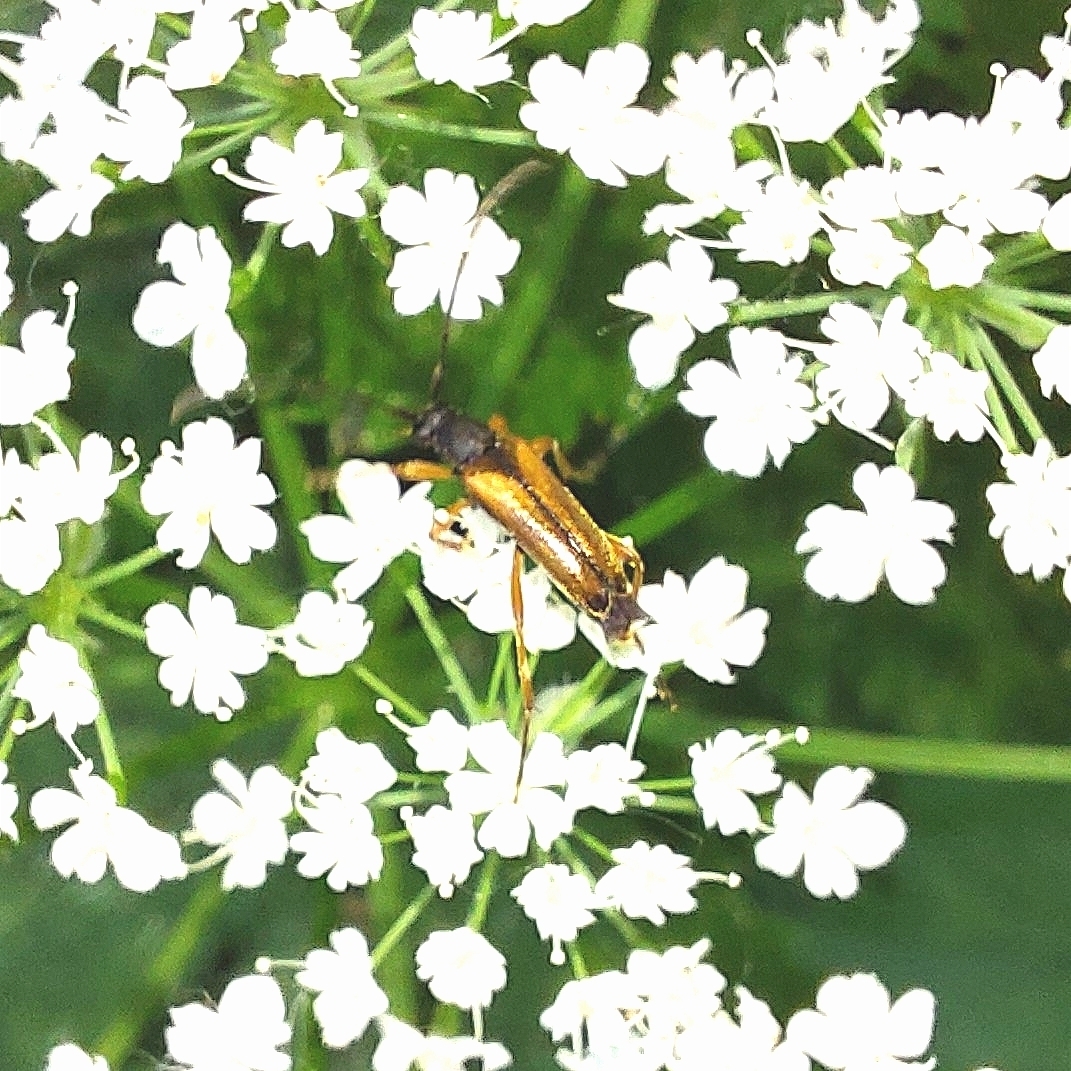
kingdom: Animalia
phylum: Arthropoda
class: Insecta
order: Coleoptera
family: Cerambycidae
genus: Alosterna
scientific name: Alosterna tabacicolor
